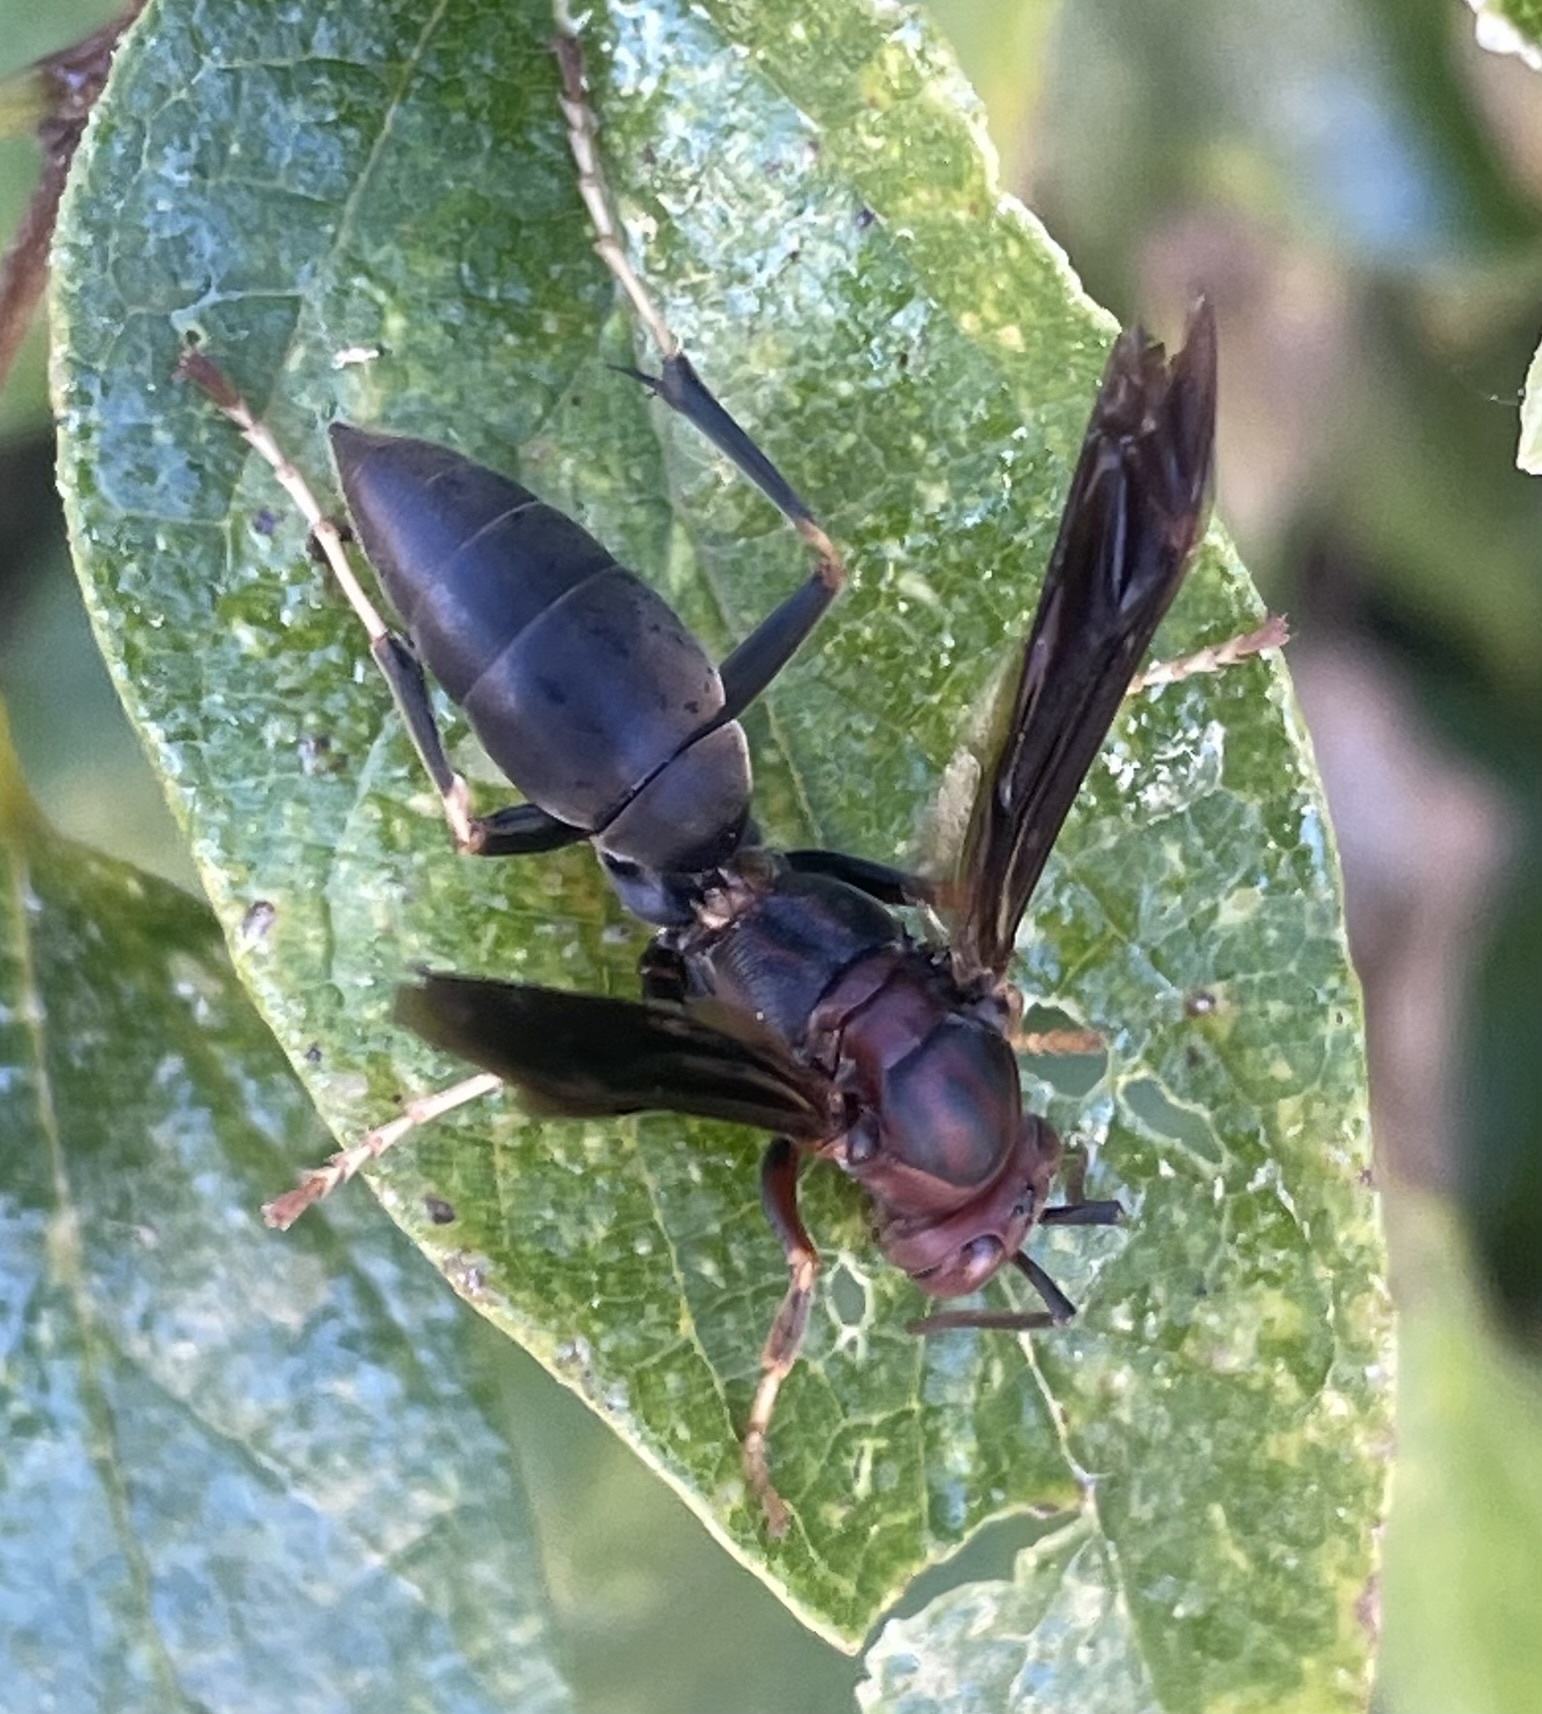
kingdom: Animalia
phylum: Arthropoda
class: Insecta
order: Hymenoptera
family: Eumenidae
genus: Polistes
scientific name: Polistes metricus
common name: Metric paper wasp
